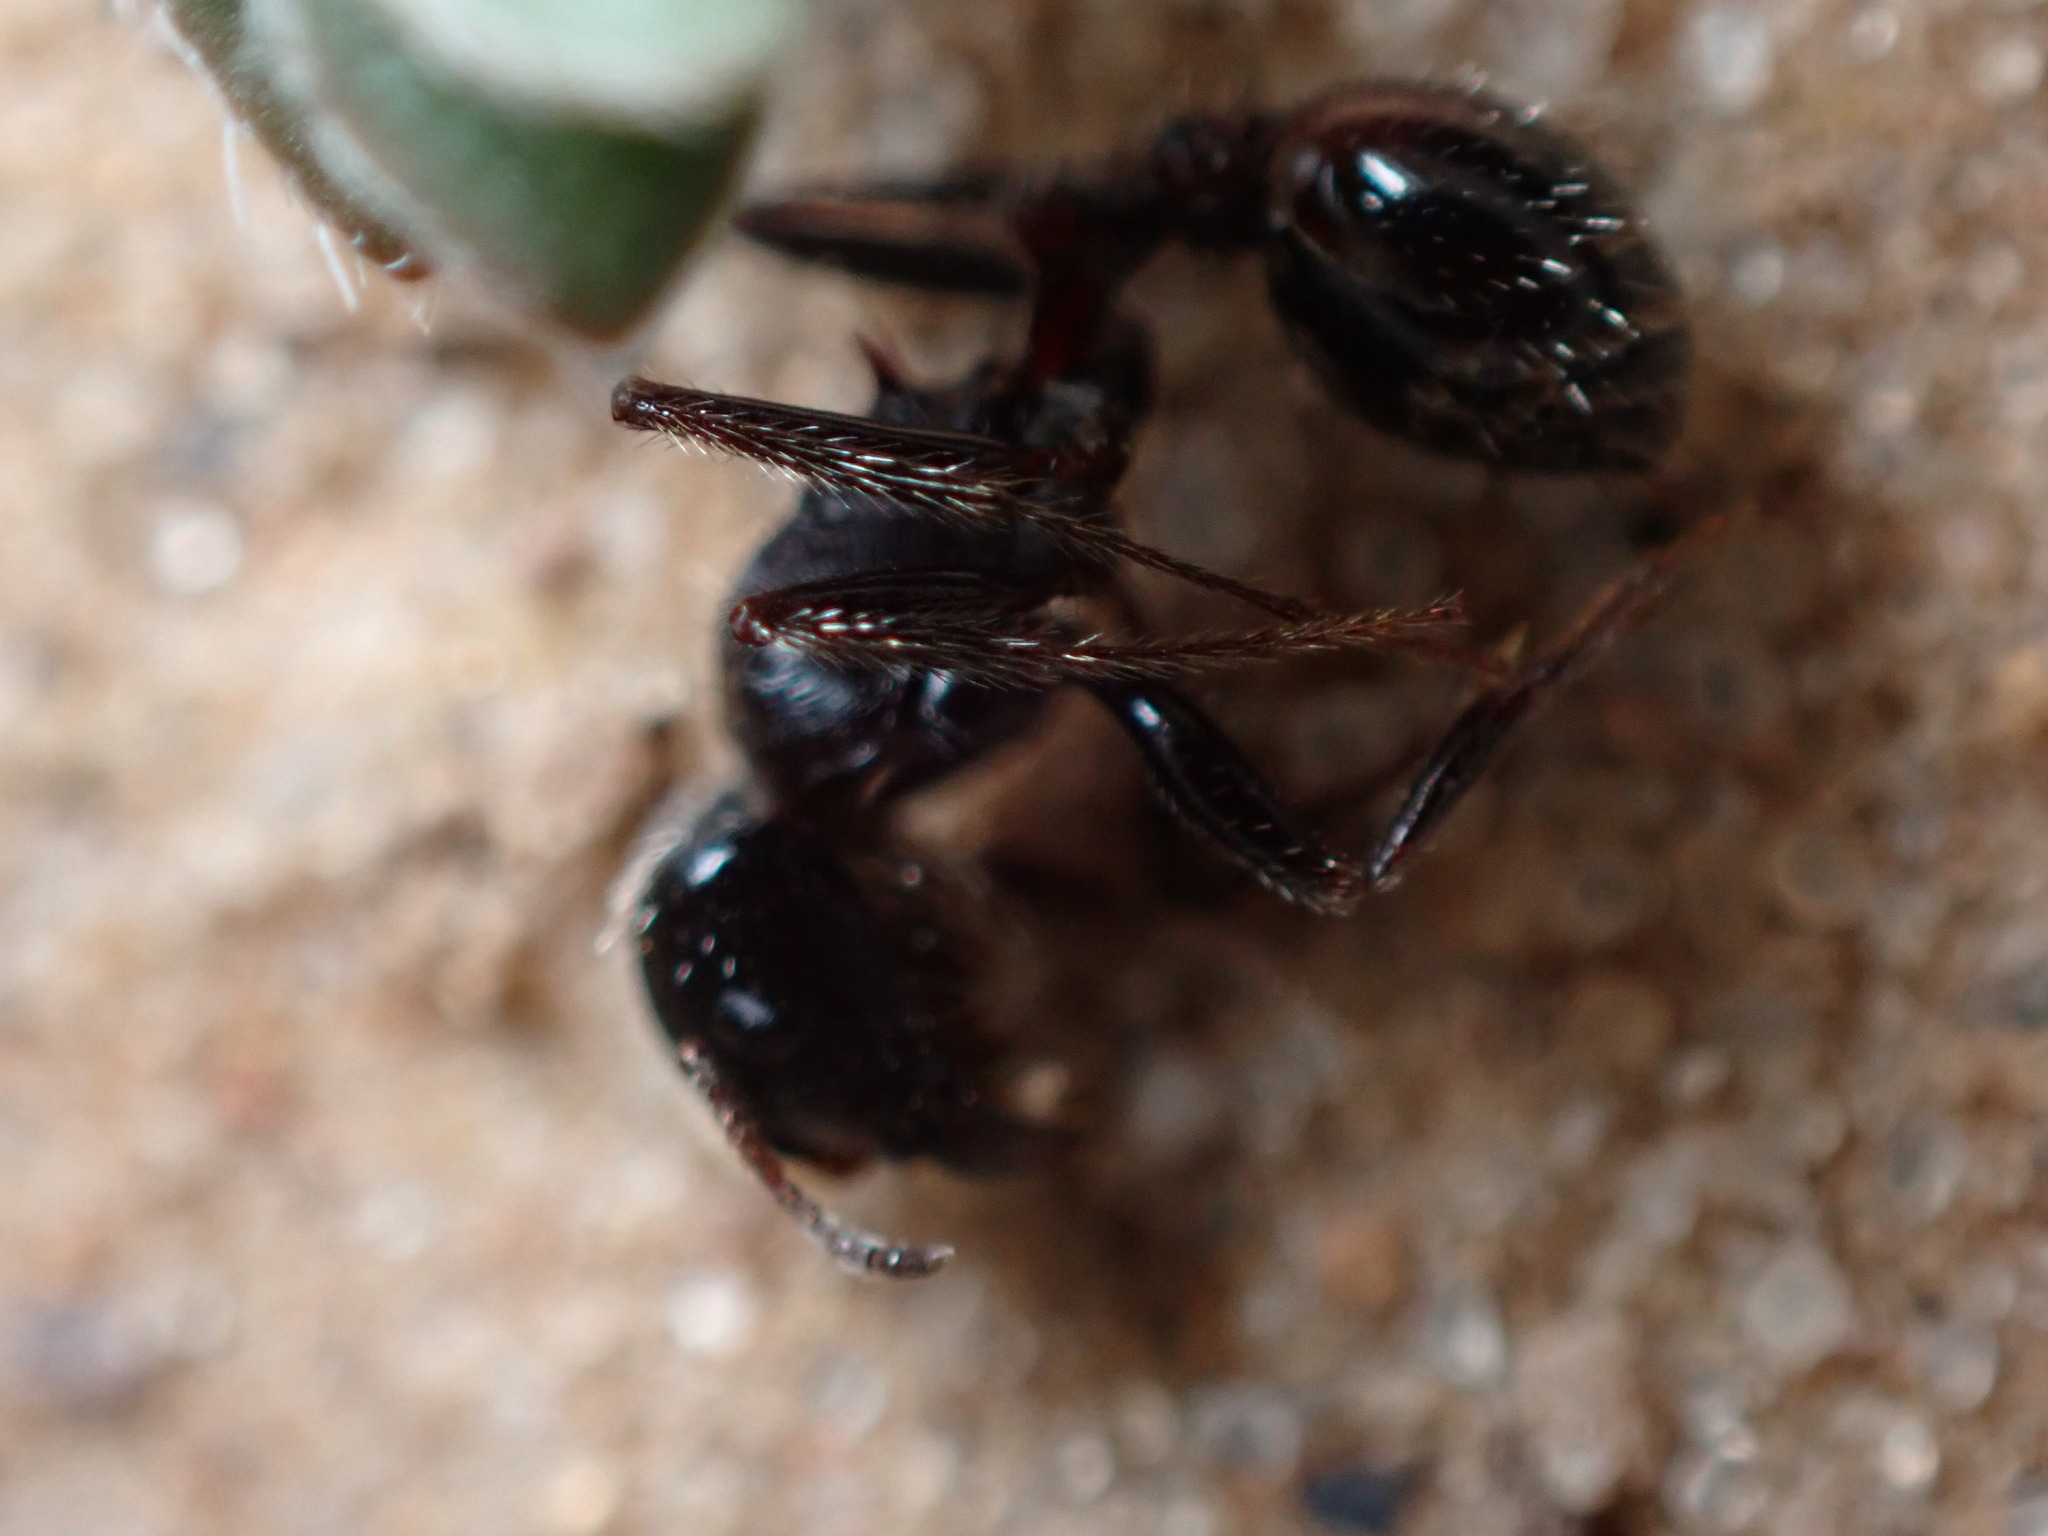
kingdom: Animalia
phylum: Arthropoda
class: Insecta
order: Hymenoptera
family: Formicidae
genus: Pogonomyrmex
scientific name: Pogonomyrmex rugosus
